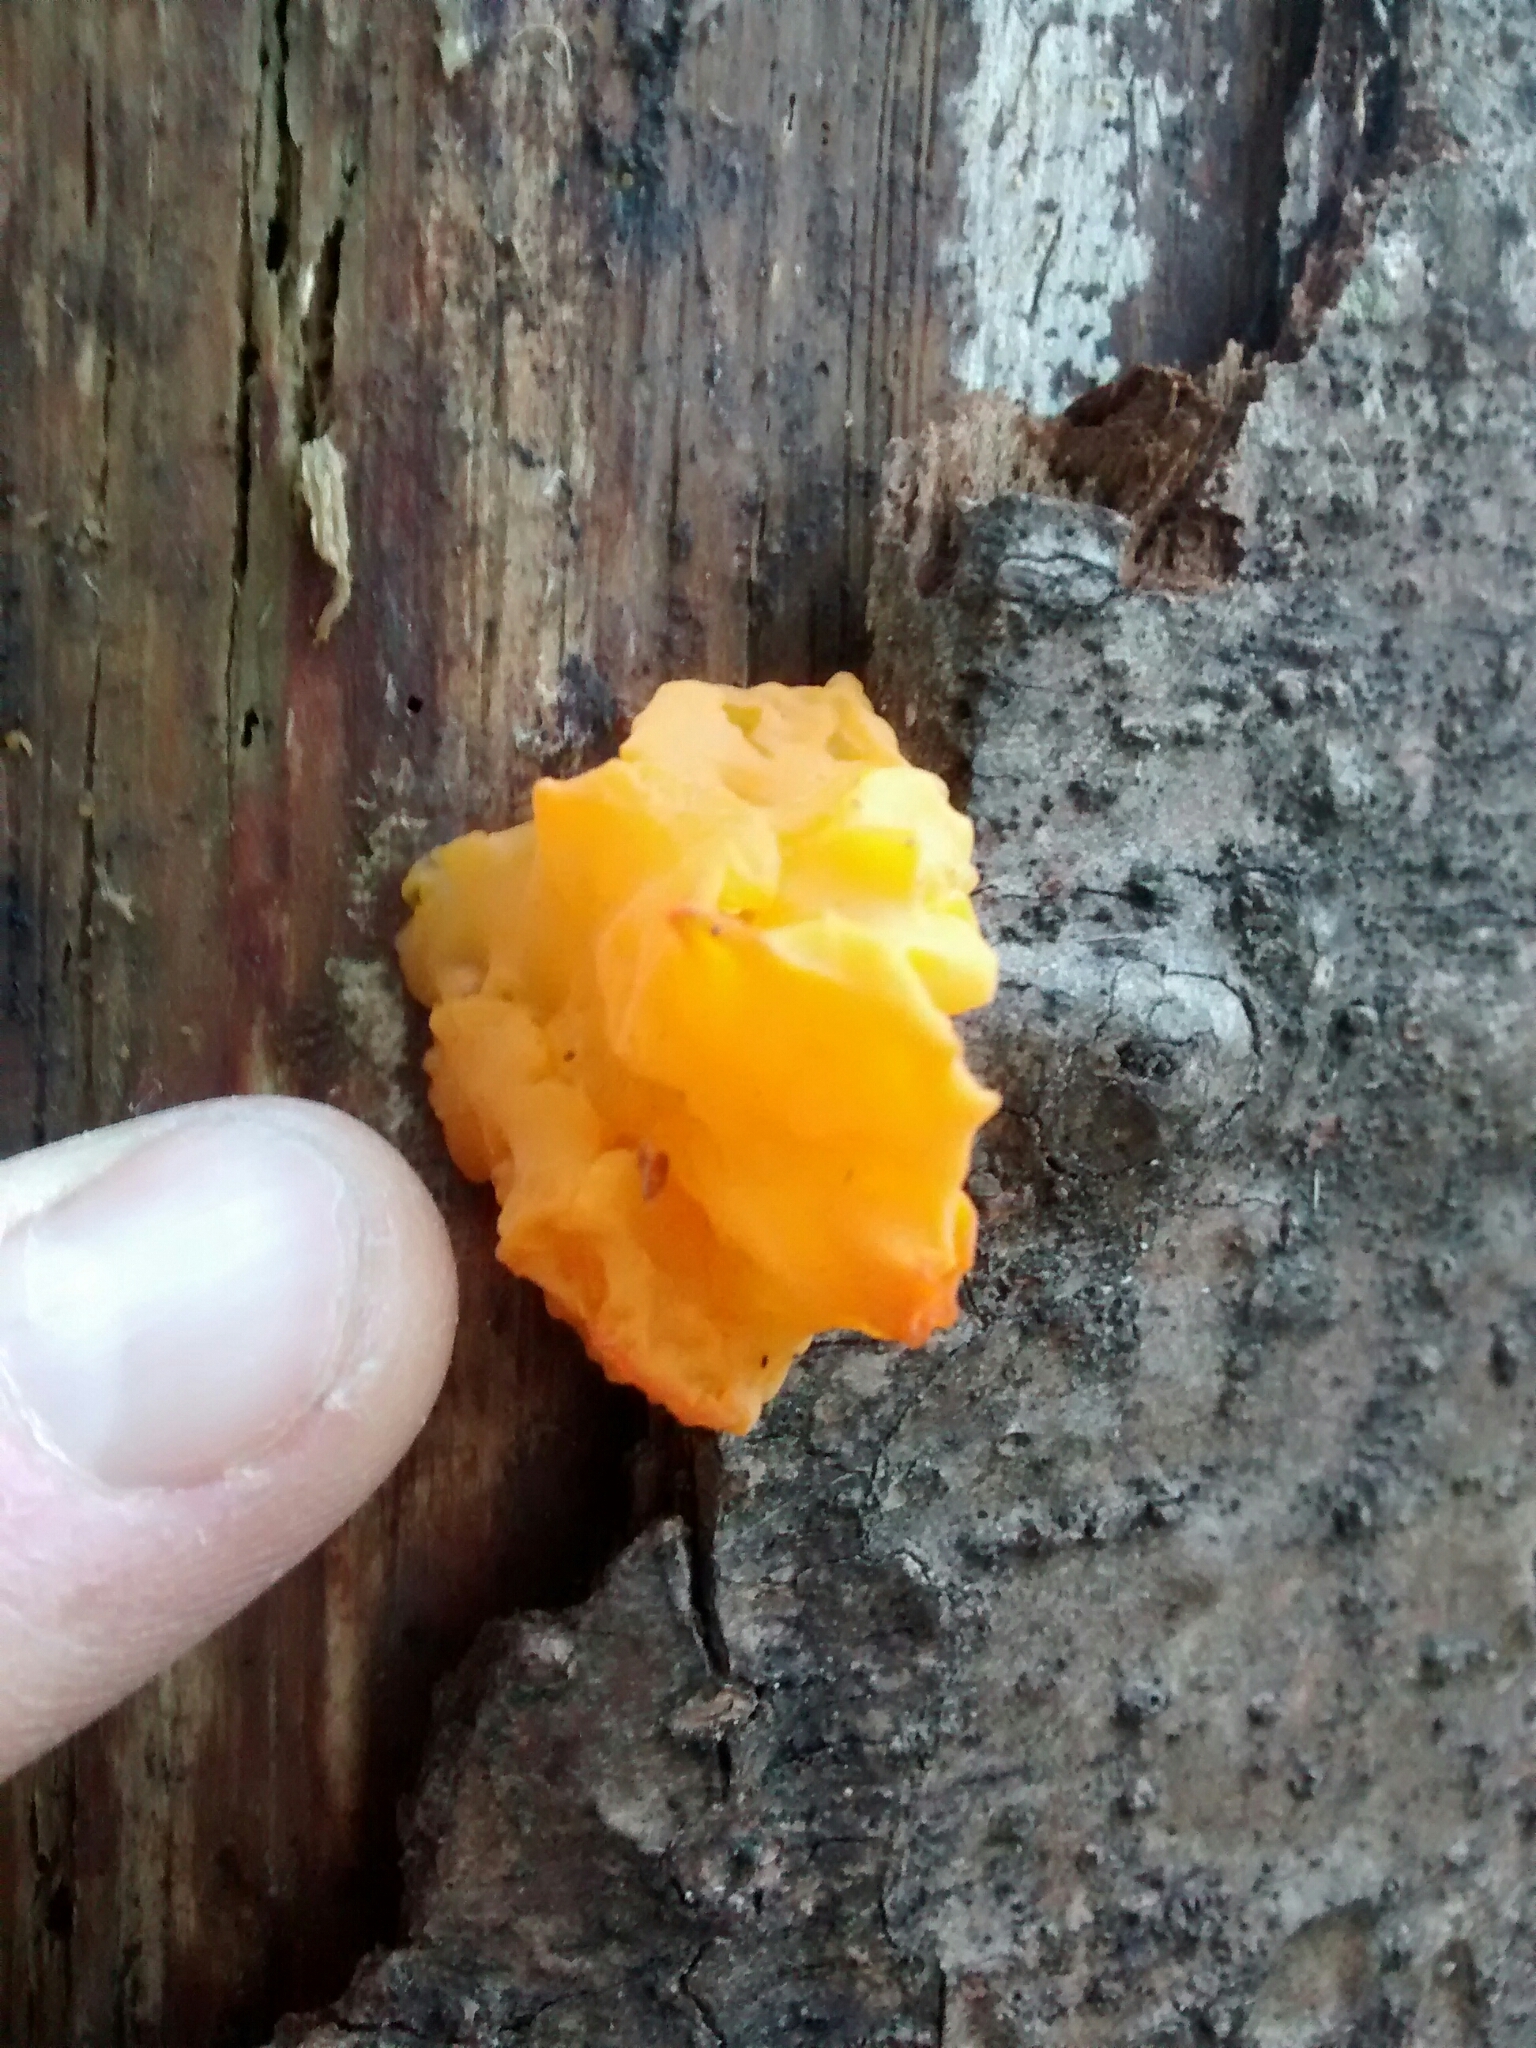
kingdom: Fungi
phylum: Basidiomycota
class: Dacrymycetes
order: Dacrymycetales
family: Dacrymycetaceae
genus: Dacrymyces
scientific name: Dacrymyces chrysospermus
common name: Orange jelly spot
